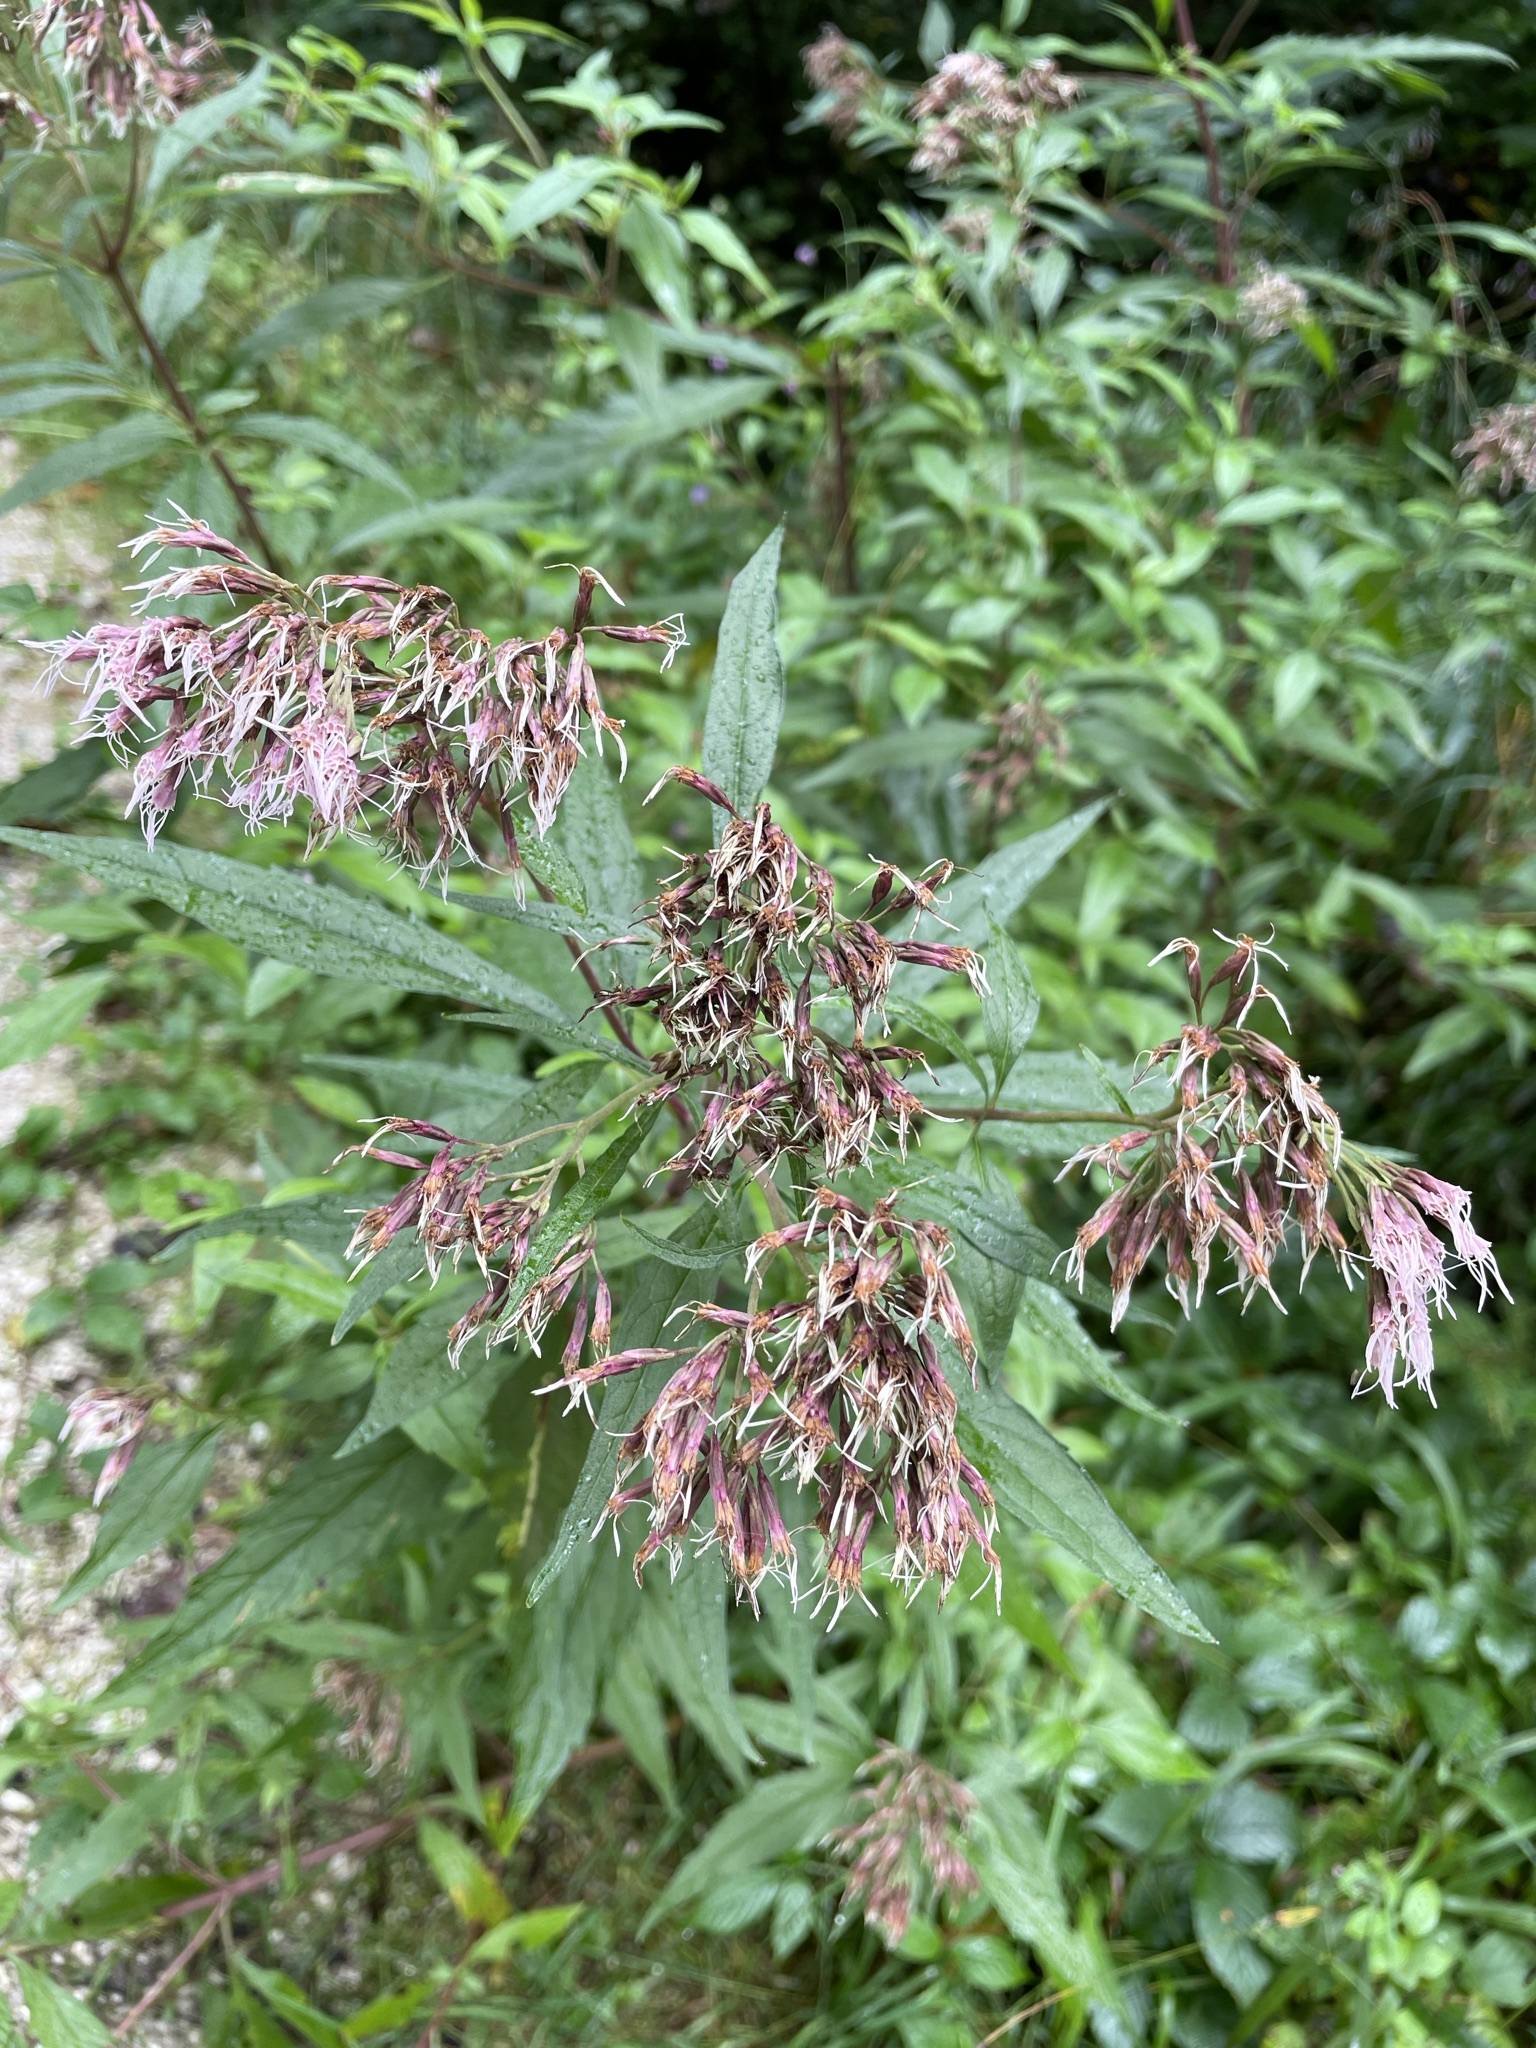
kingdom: Plantae
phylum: Tracheophyta
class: Magnoliopsida
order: Asterales
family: Asteraceae
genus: Eupatorium
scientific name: Eupatorium cannabinum
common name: Hemp-agrimony
